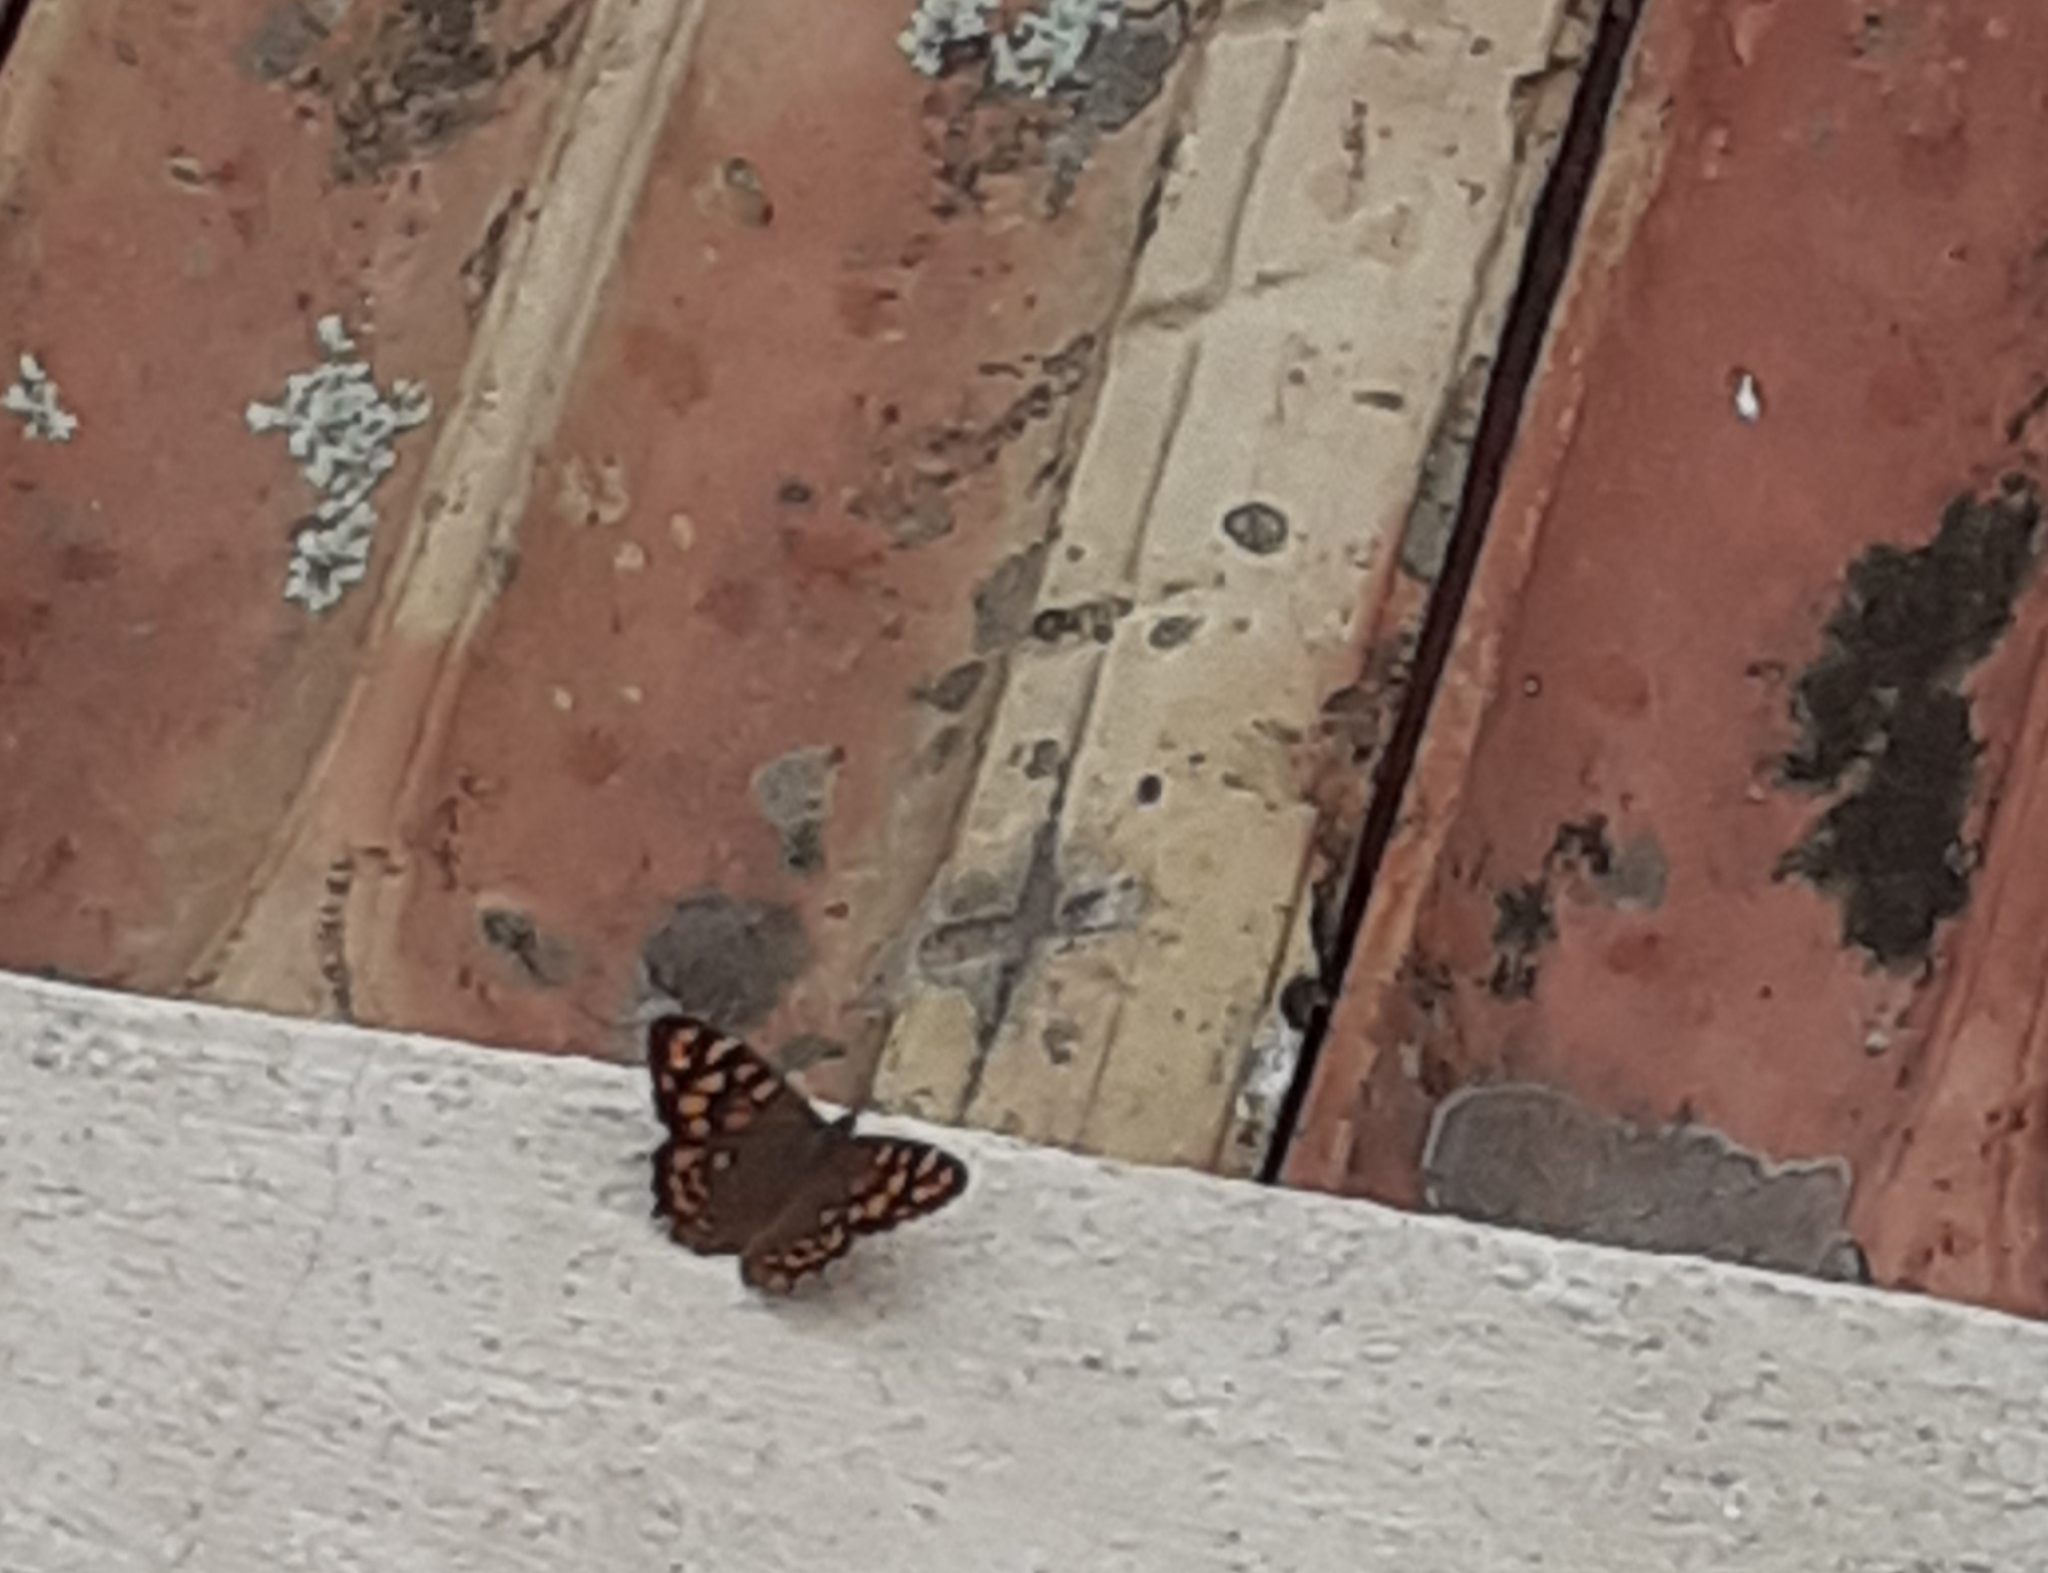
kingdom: Animalia
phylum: Arthropoda
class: Insecta
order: Lepidoptera
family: Nymphalidae
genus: Pararge
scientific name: Pararge aegeria
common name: Speckled wood
